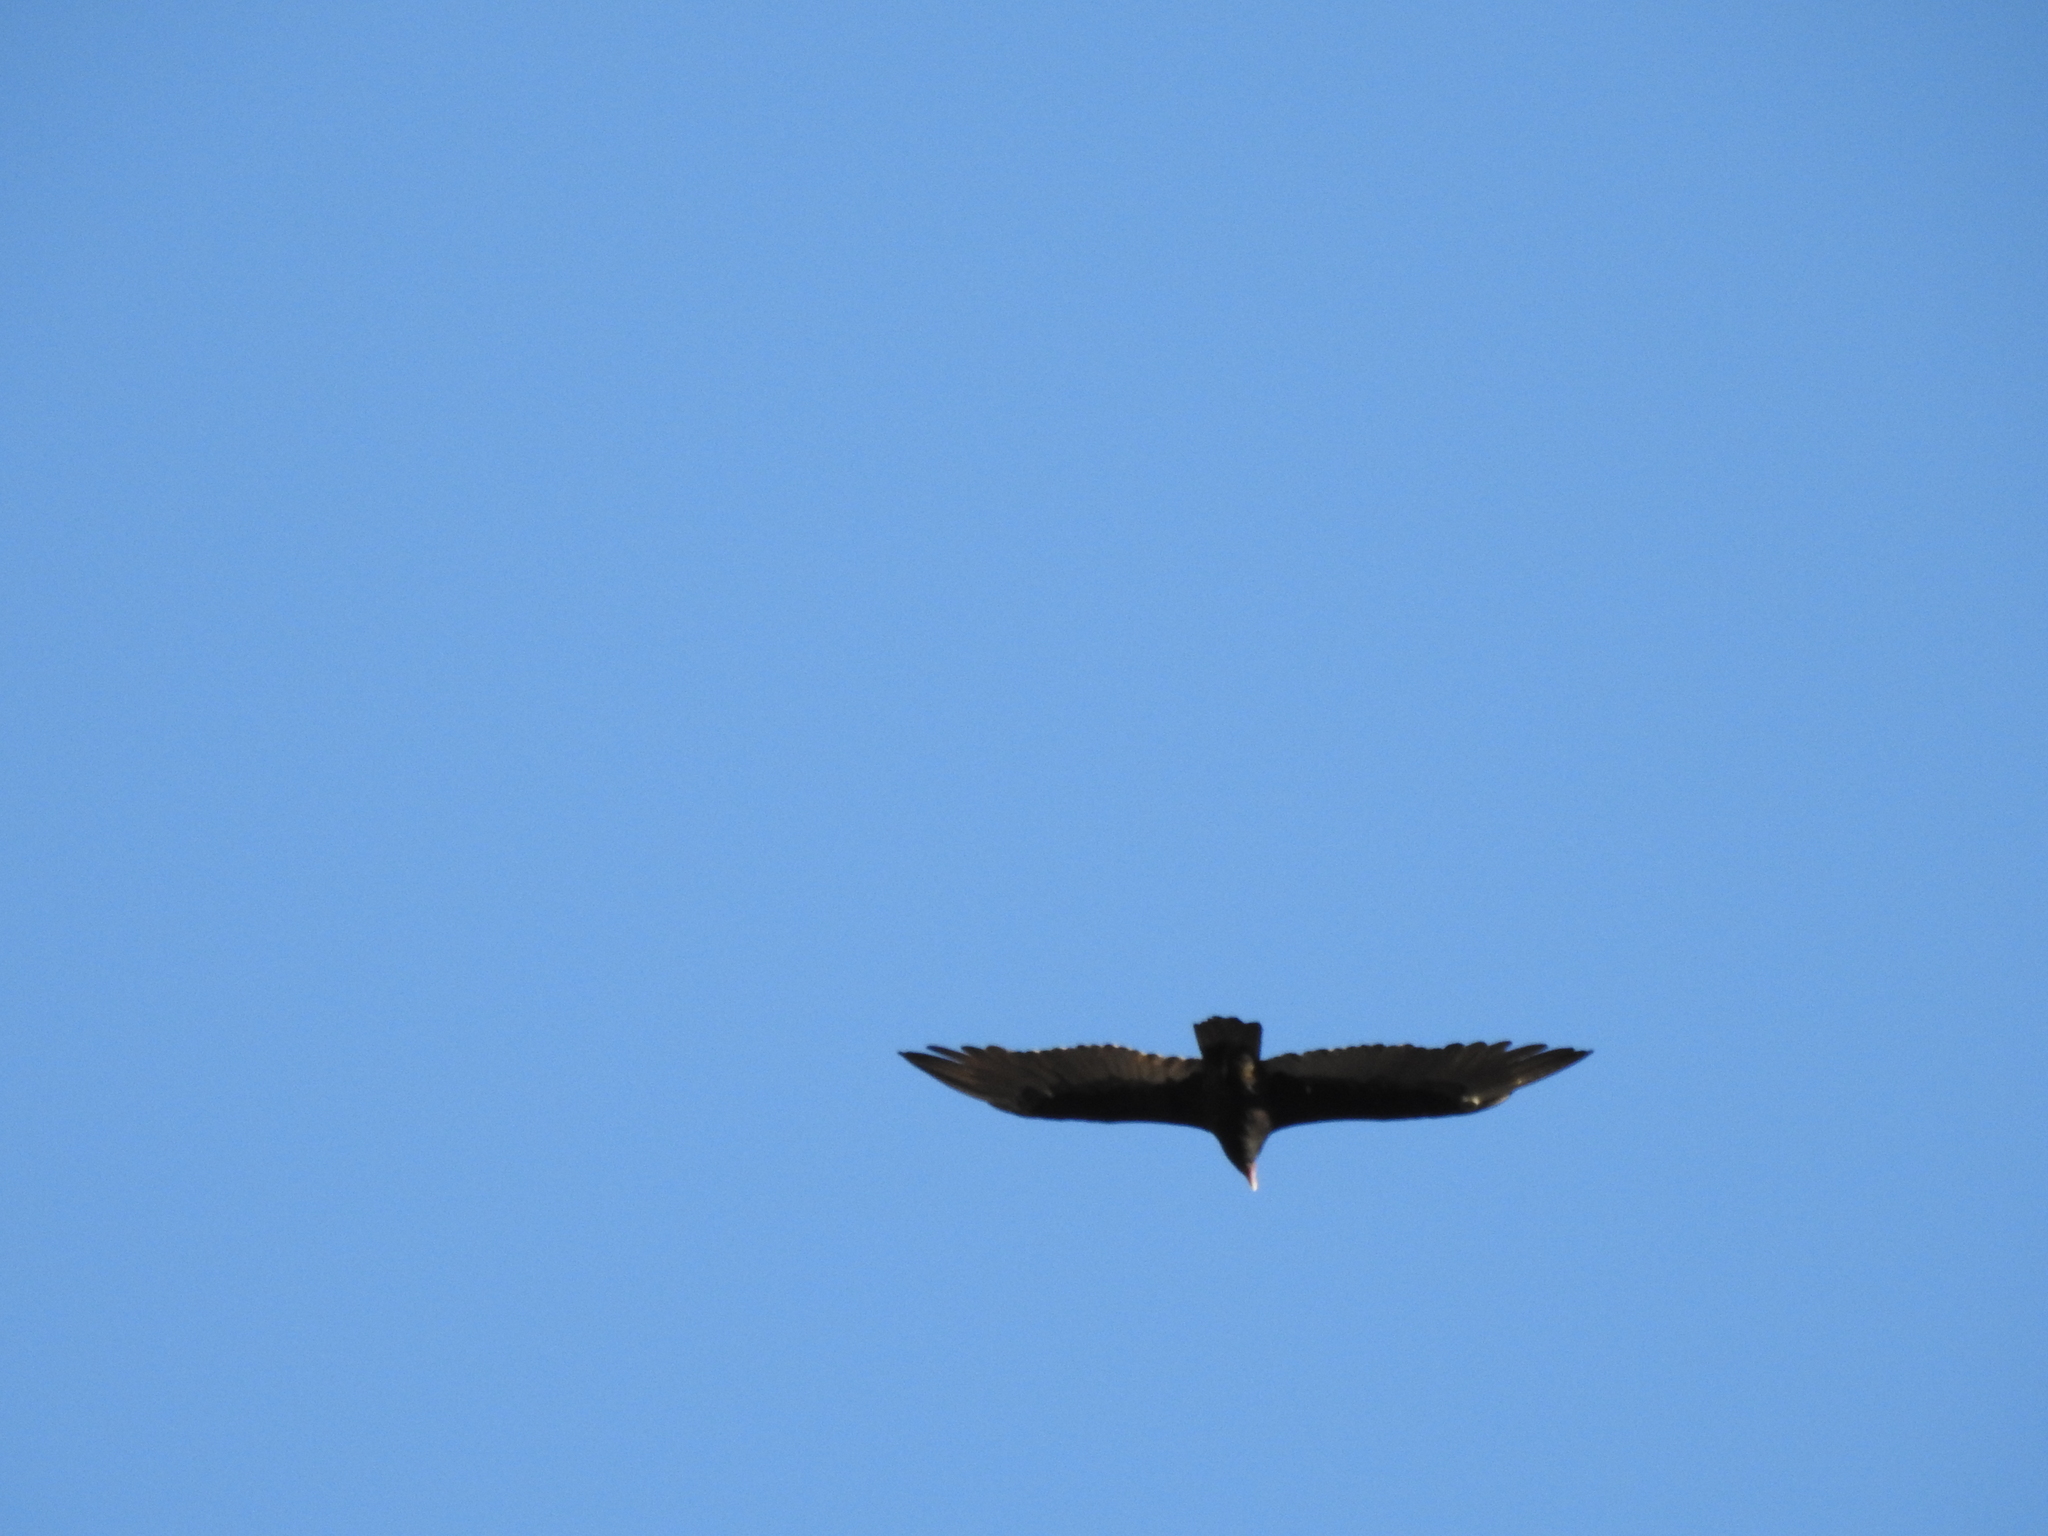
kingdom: Animalia
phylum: Chordata
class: Aves
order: Accipitriformes
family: Cathartidae
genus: Cathartes
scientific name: Cathartes aura
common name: Turkey vulture
